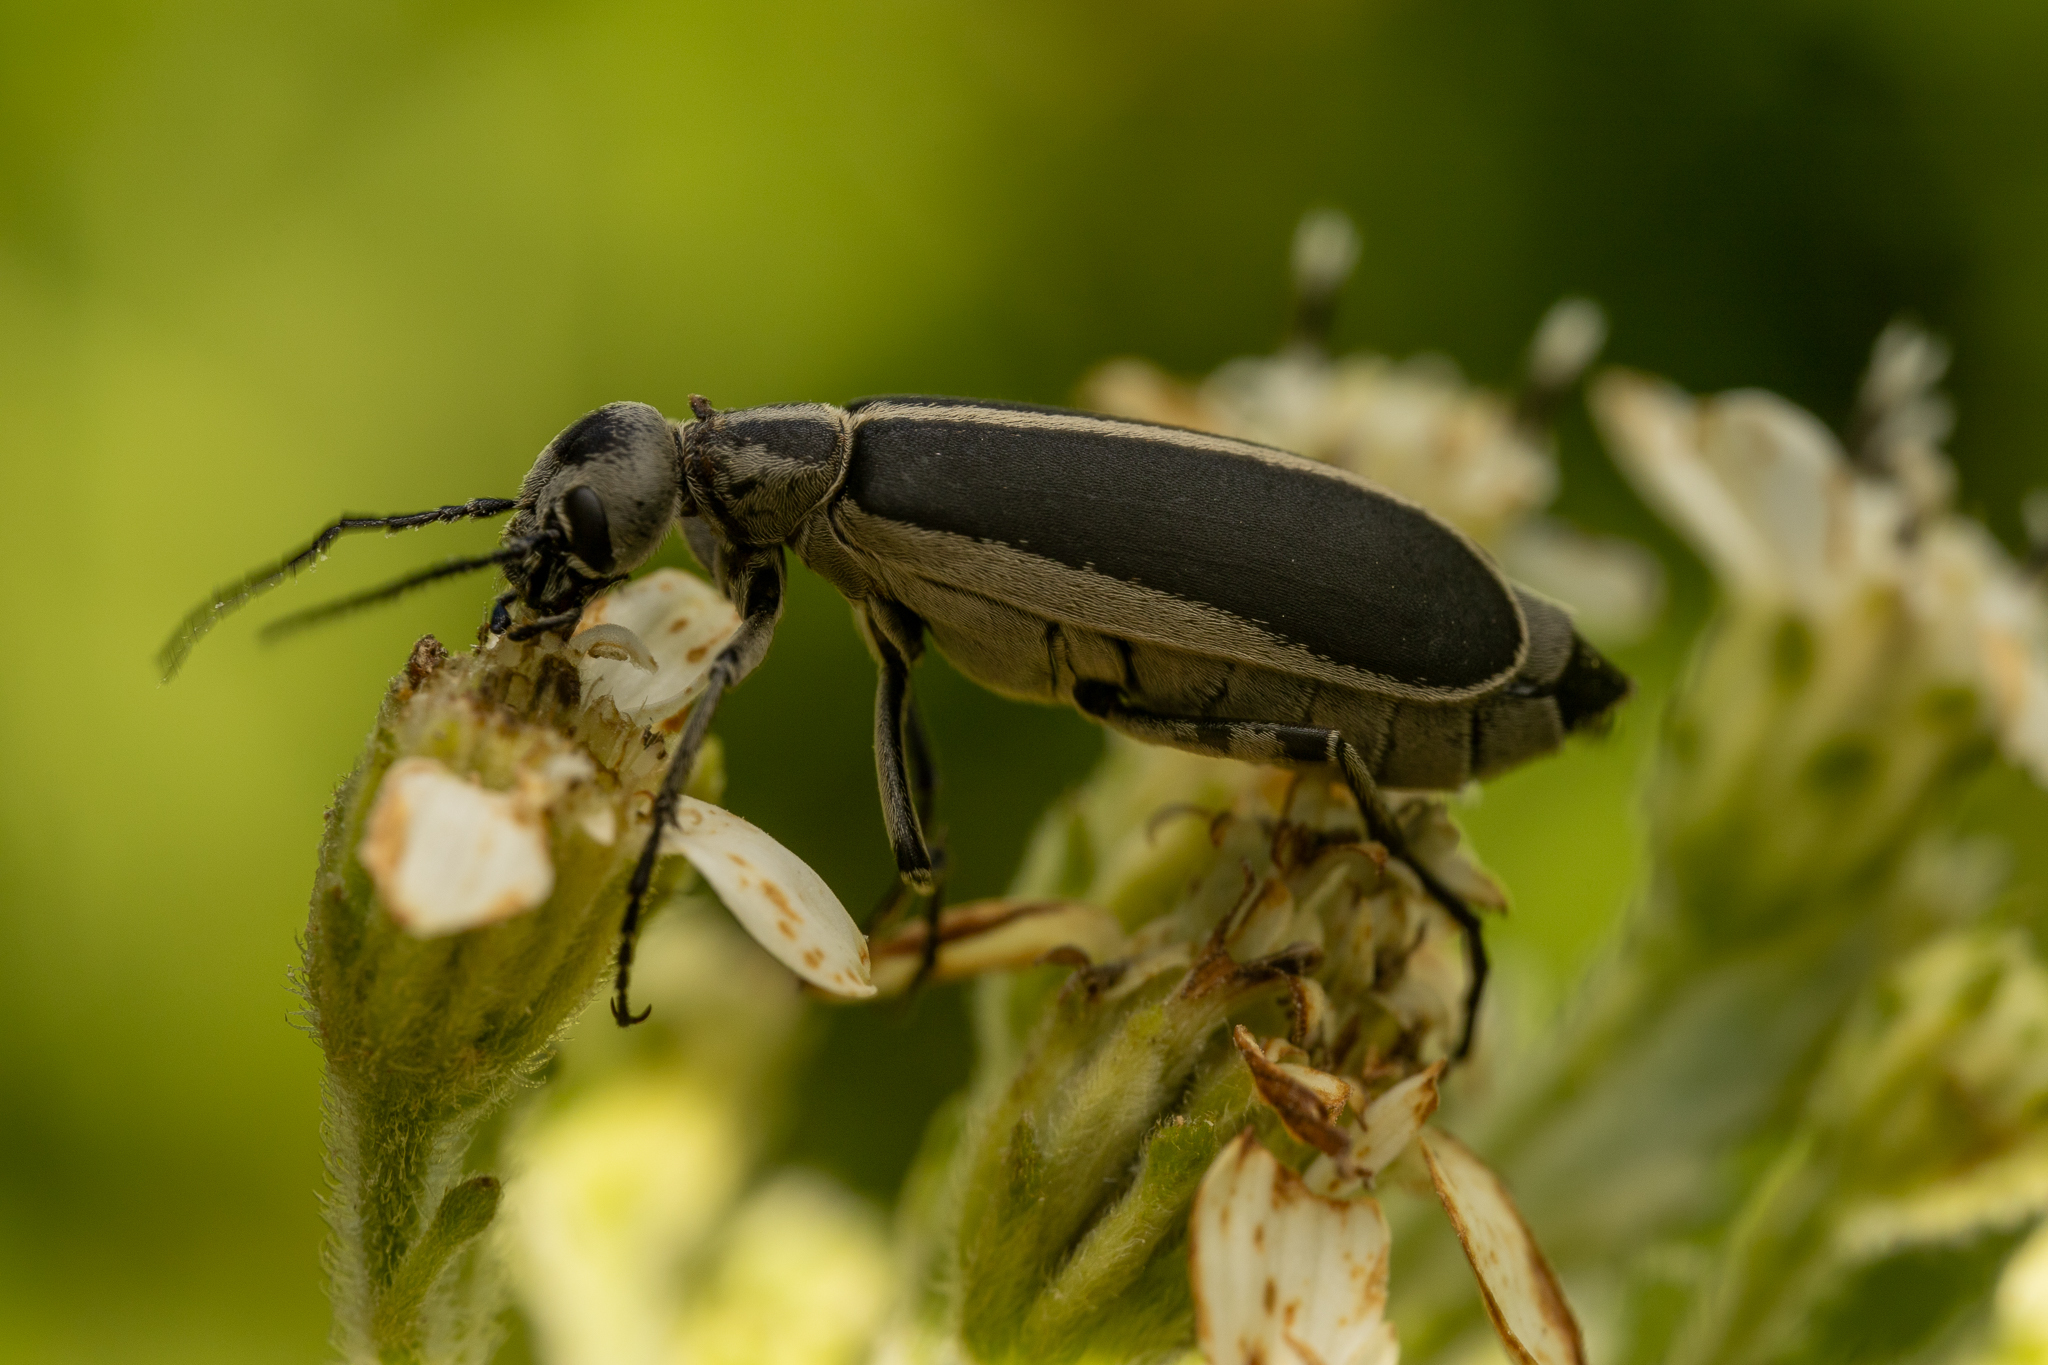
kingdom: Animalia
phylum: Arthropoda
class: Insecta
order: Coleoptera
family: Meloidae
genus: Epicauta
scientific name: Epicauta funebris
